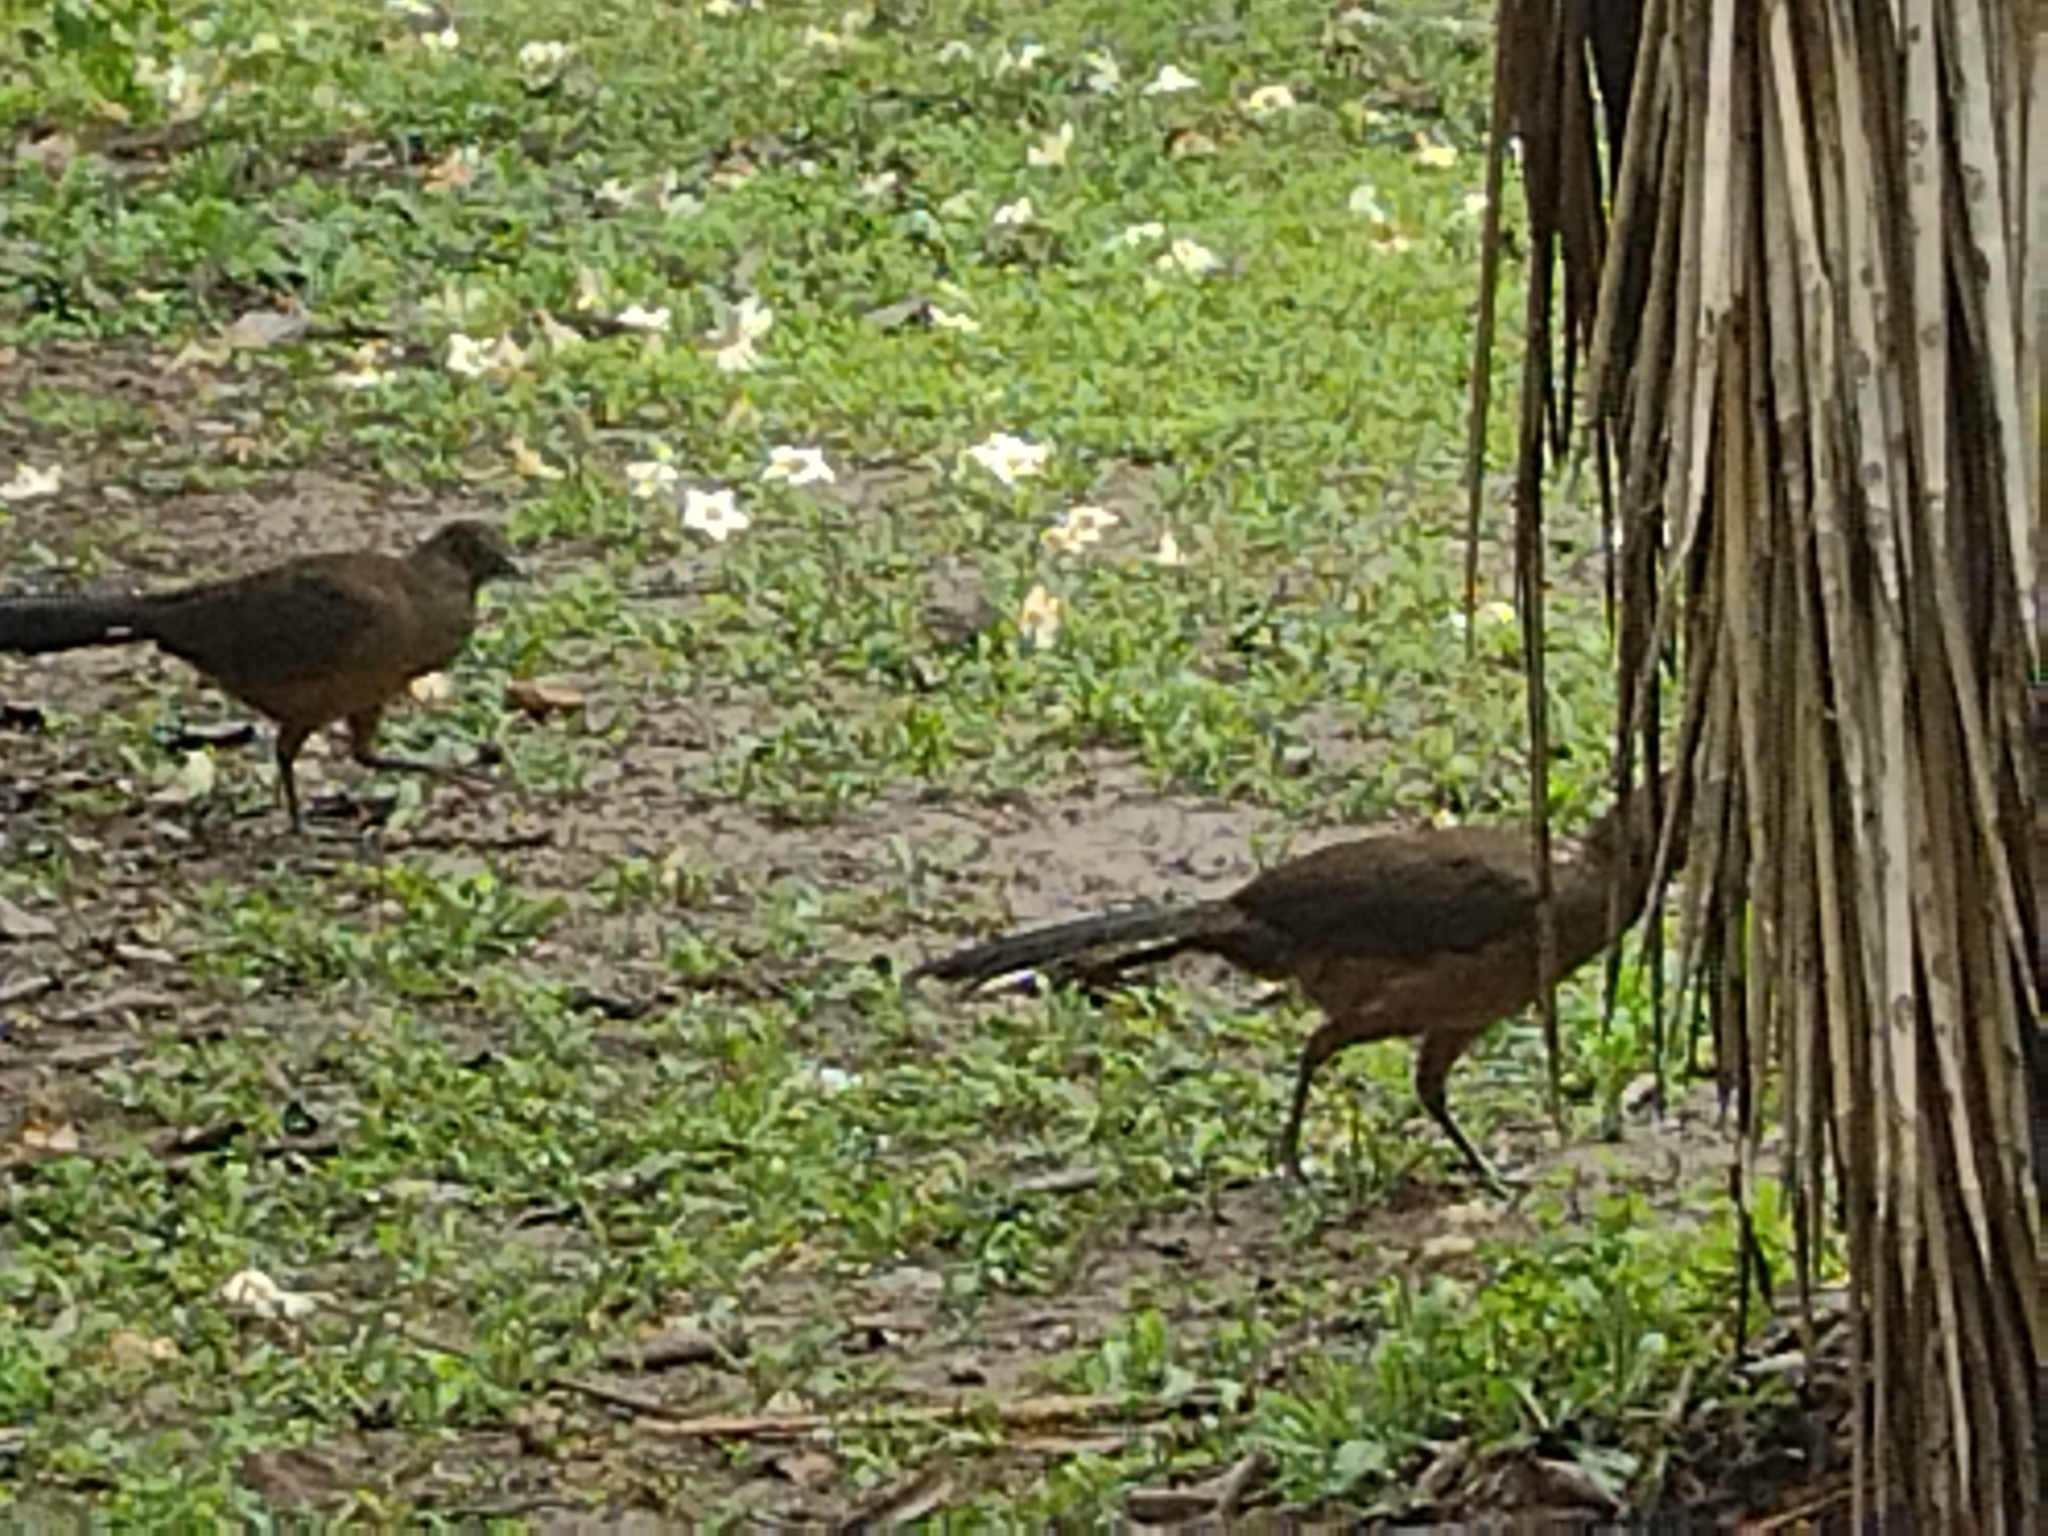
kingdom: Animalia
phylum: Chordata
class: Aves
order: Galliformes
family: Cracidae
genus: Ortalis
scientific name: Ortalis vetula
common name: Plain chachalaca
